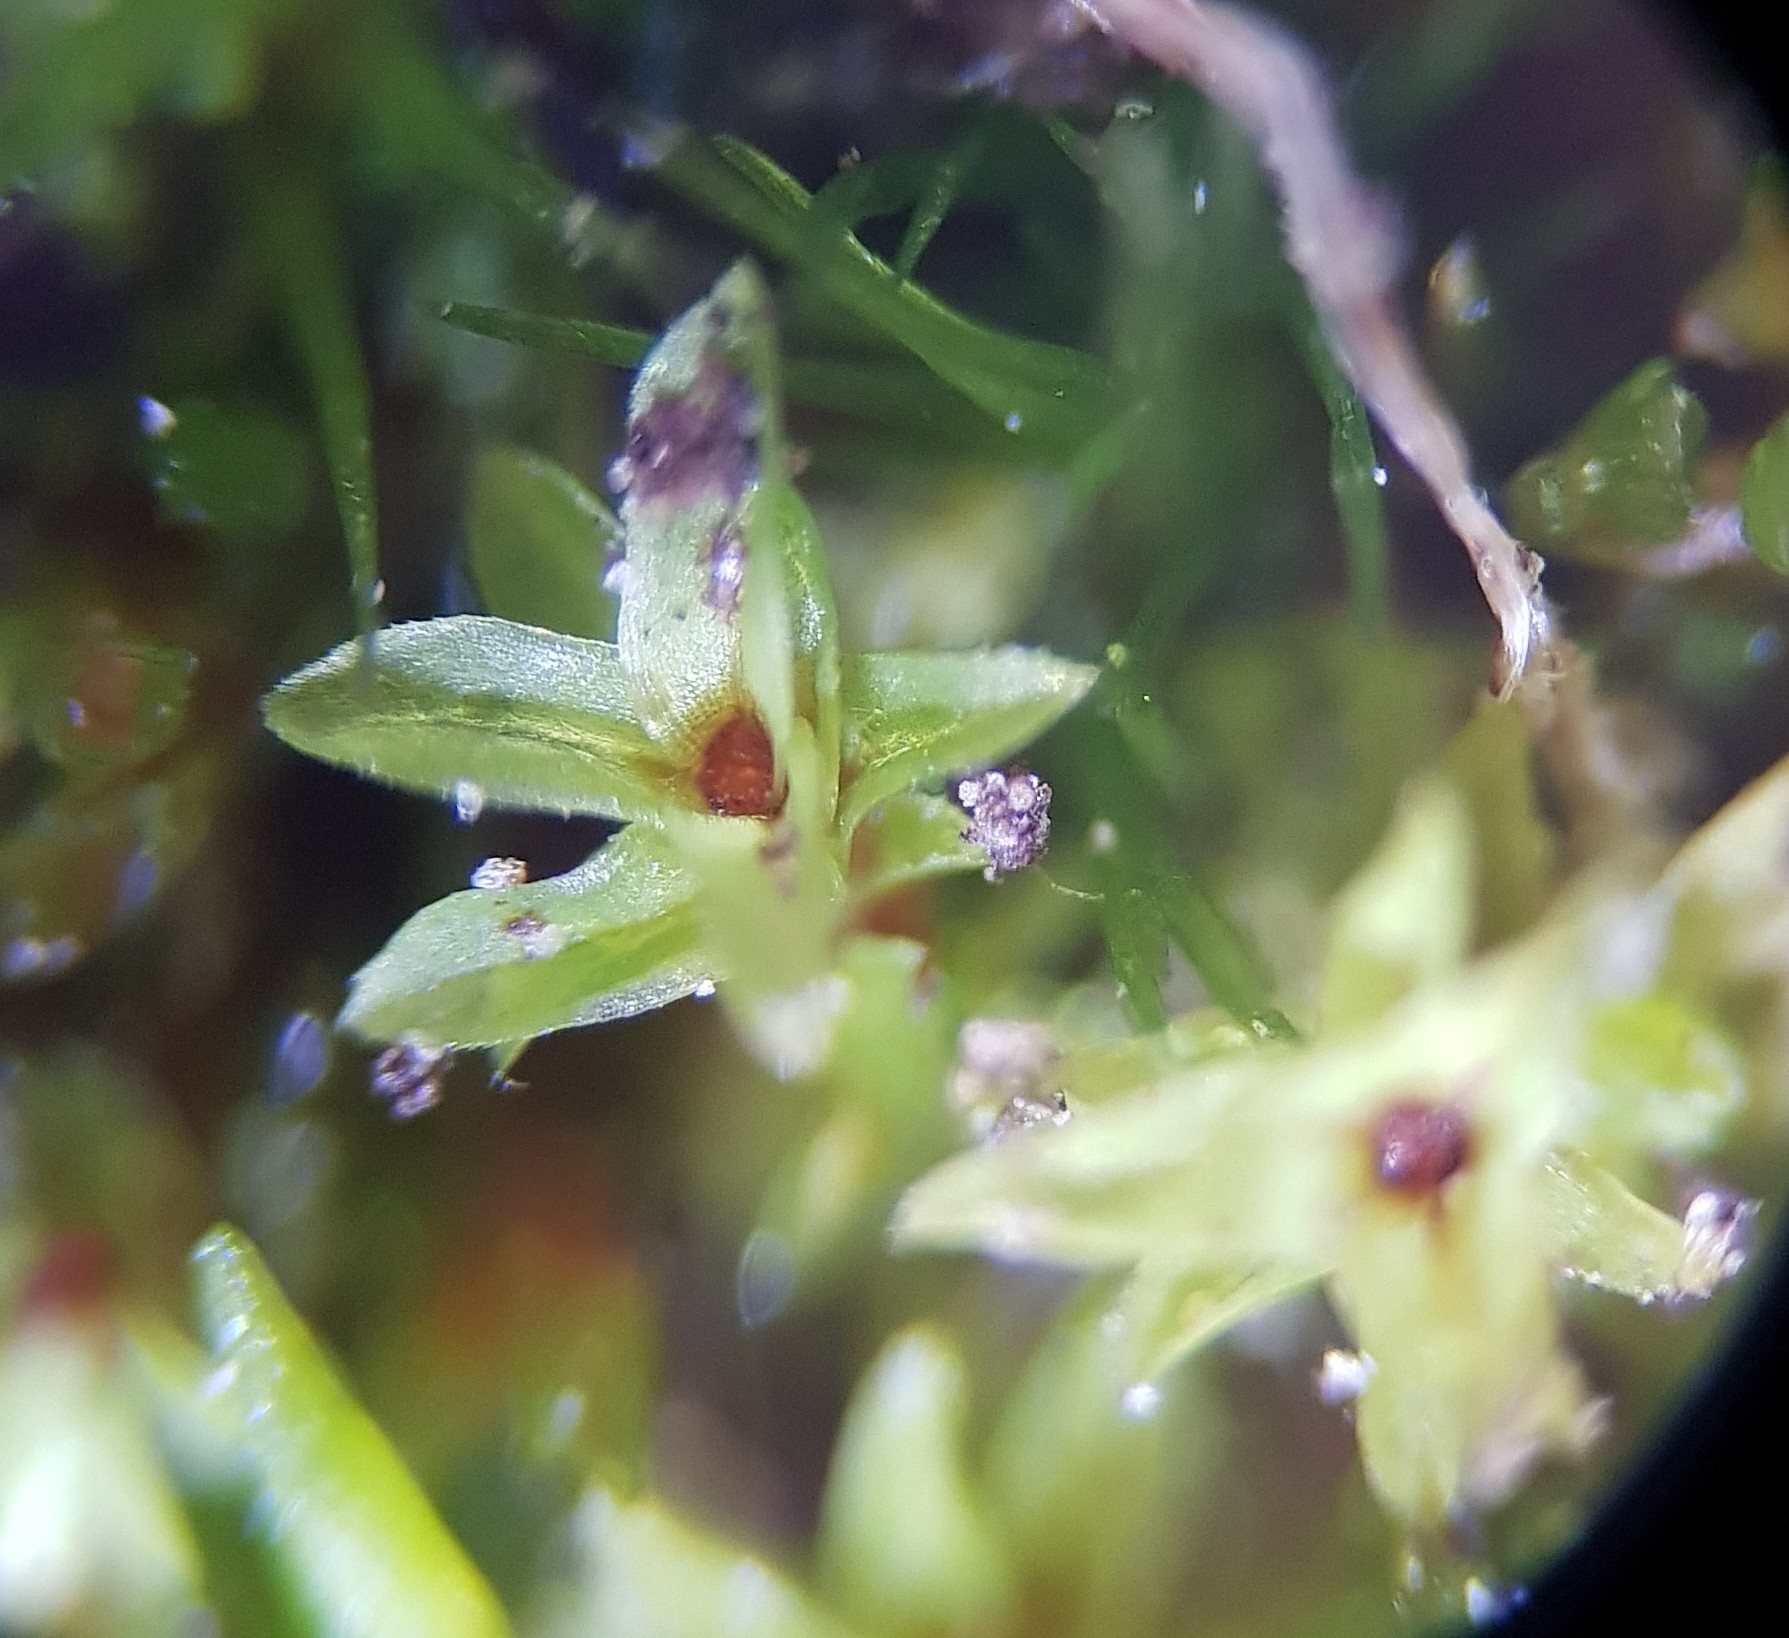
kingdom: Plantae
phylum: Bryophyta
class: Bryopsida
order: Pottiales
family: Pottiaceae
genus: Leptodontium
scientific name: Leptodontium flexifolium
